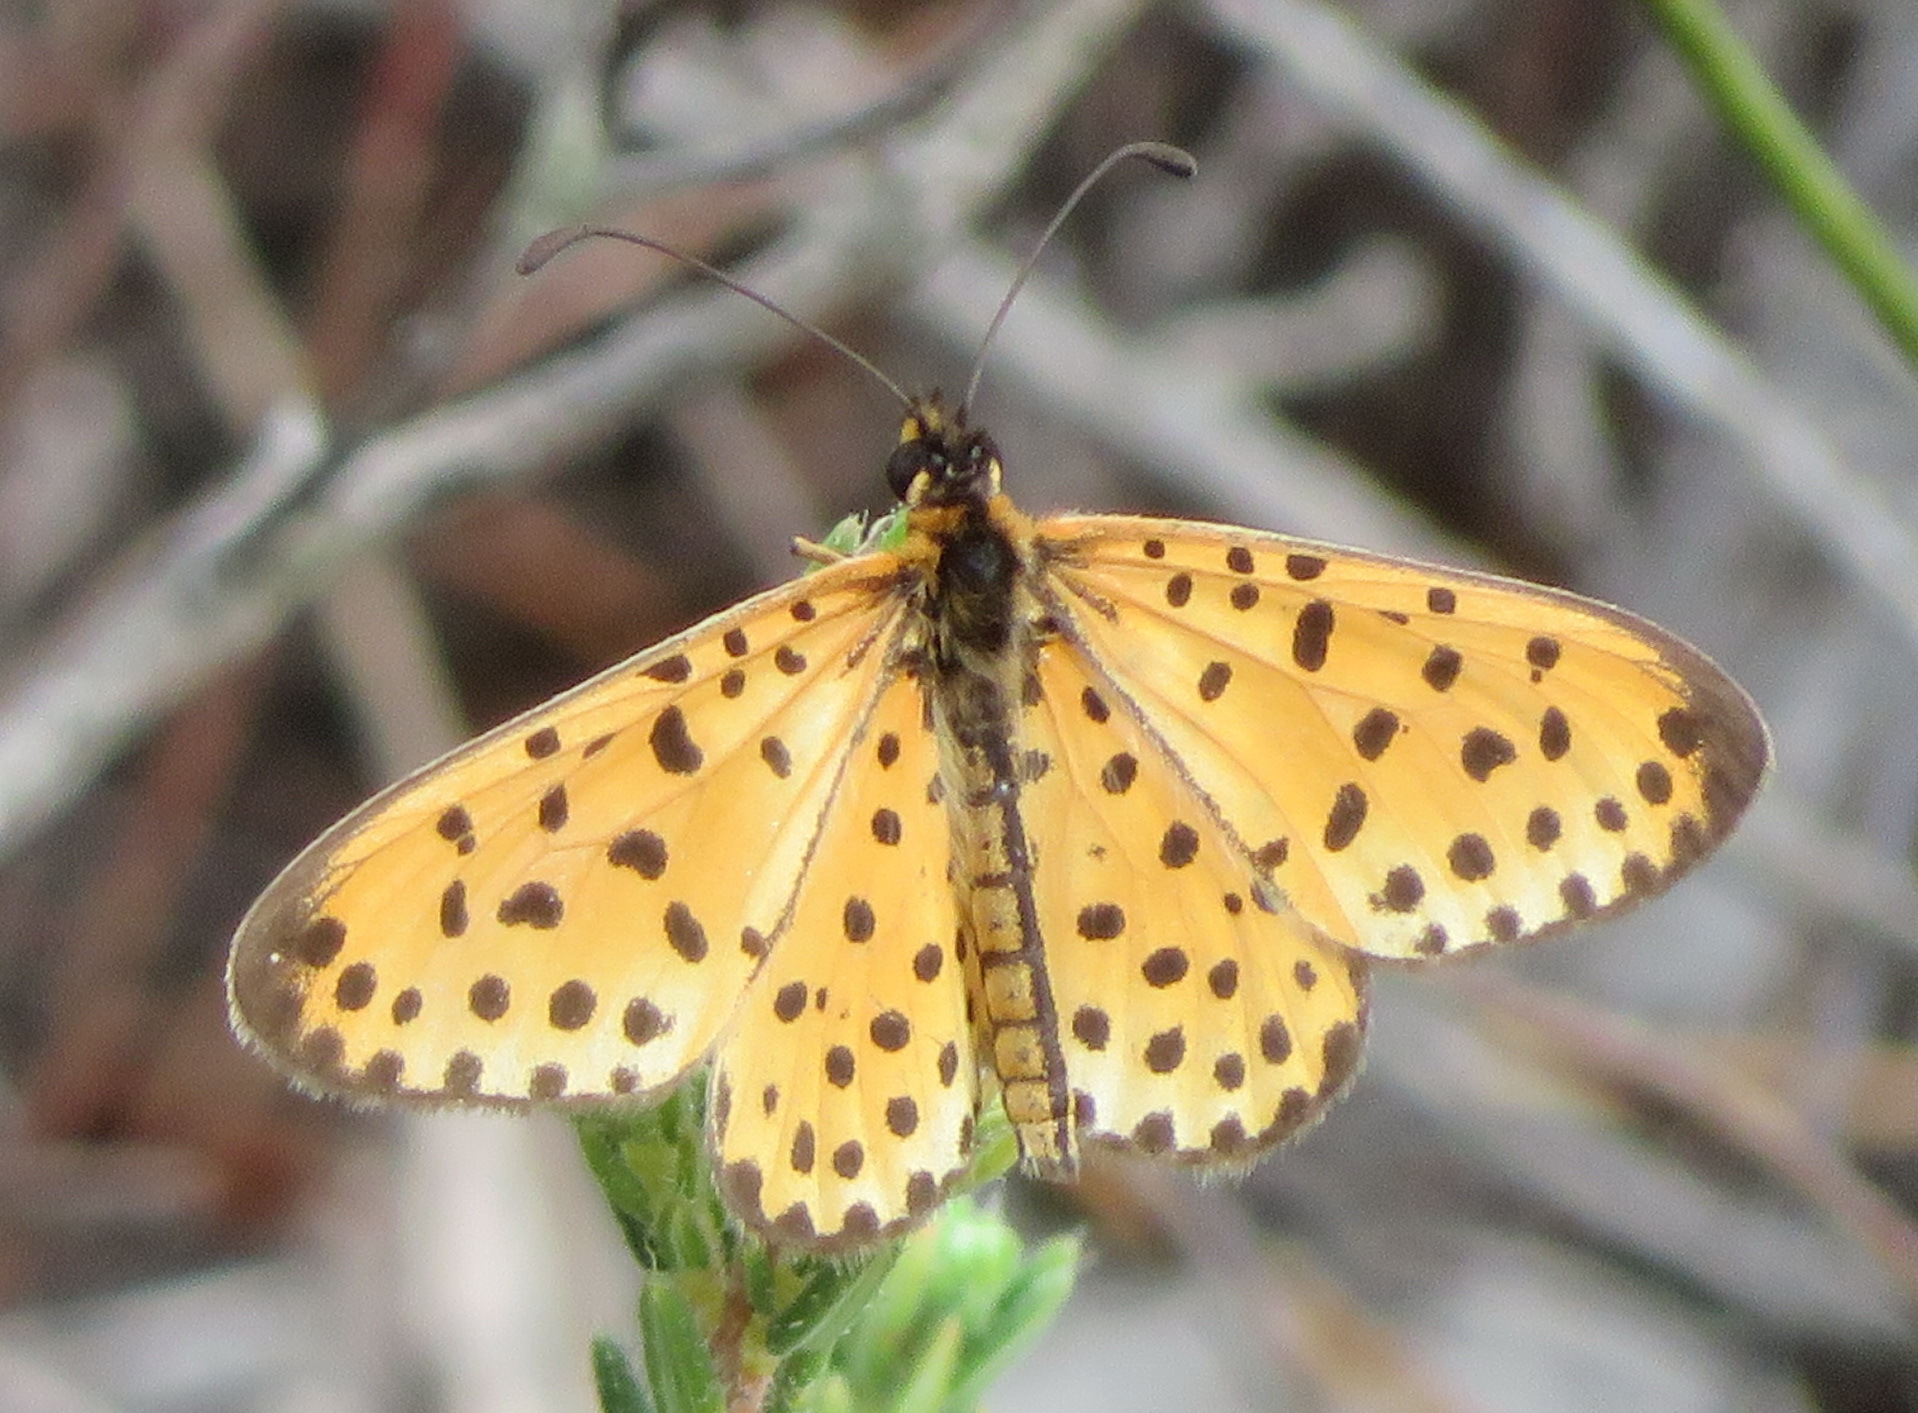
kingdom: Animalia
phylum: Arthropoda
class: Insecta
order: Lepidoptera
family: Nymphalidae
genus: Pardopsis
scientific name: Pardopsis punctatissima
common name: Polka dot
